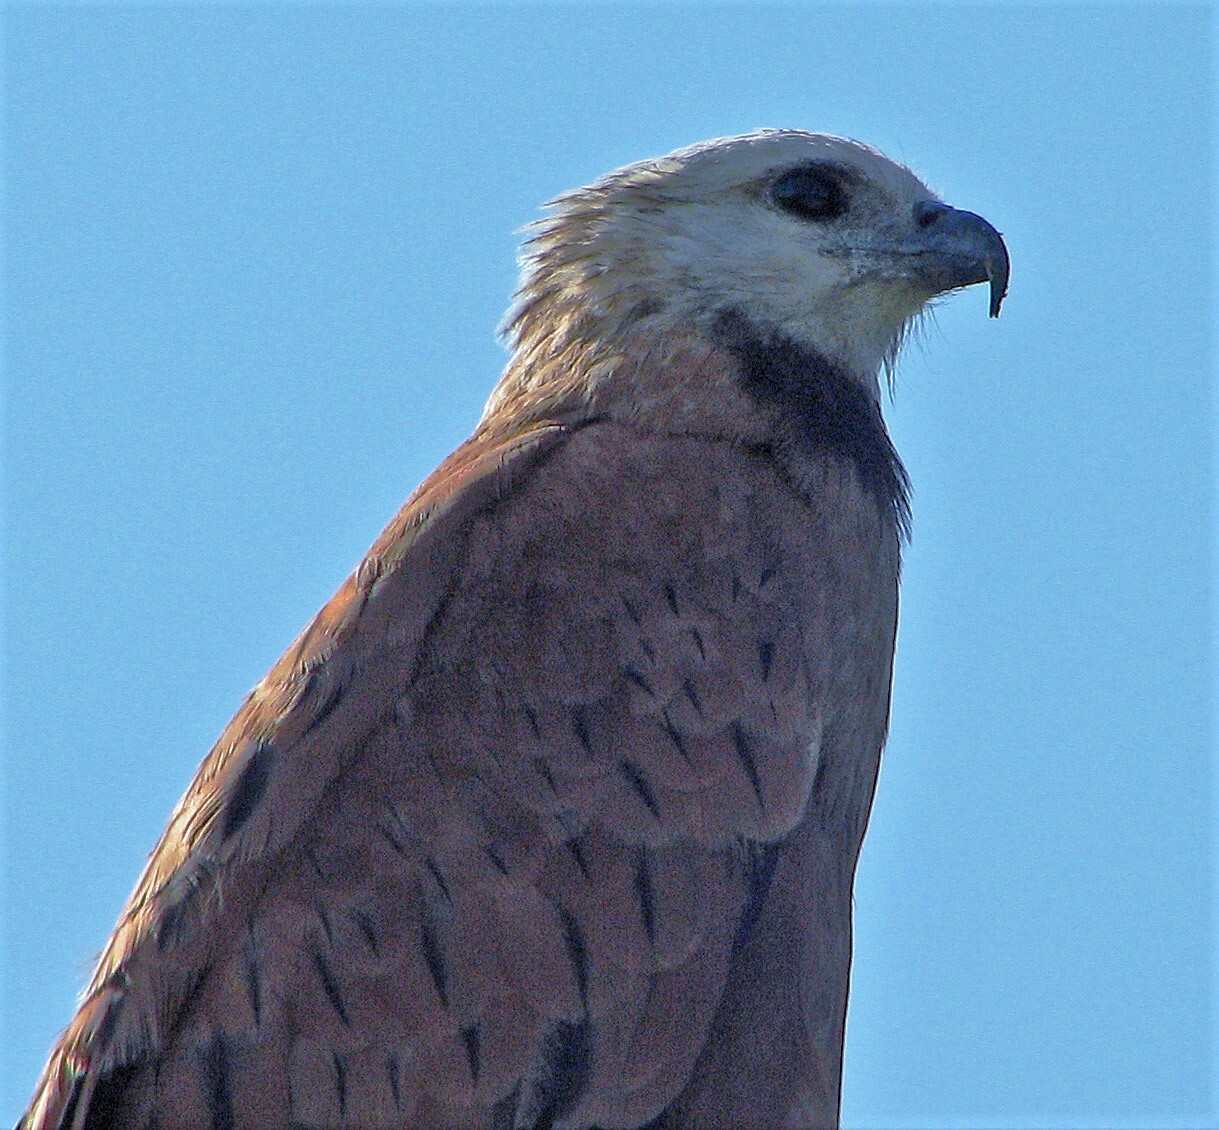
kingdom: Animalia
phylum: Chordata
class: Aves
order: Accipitriformes
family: Accipitridae
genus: Busarellus
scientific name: Busarellus nigricollis
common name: Black-collared hawk
